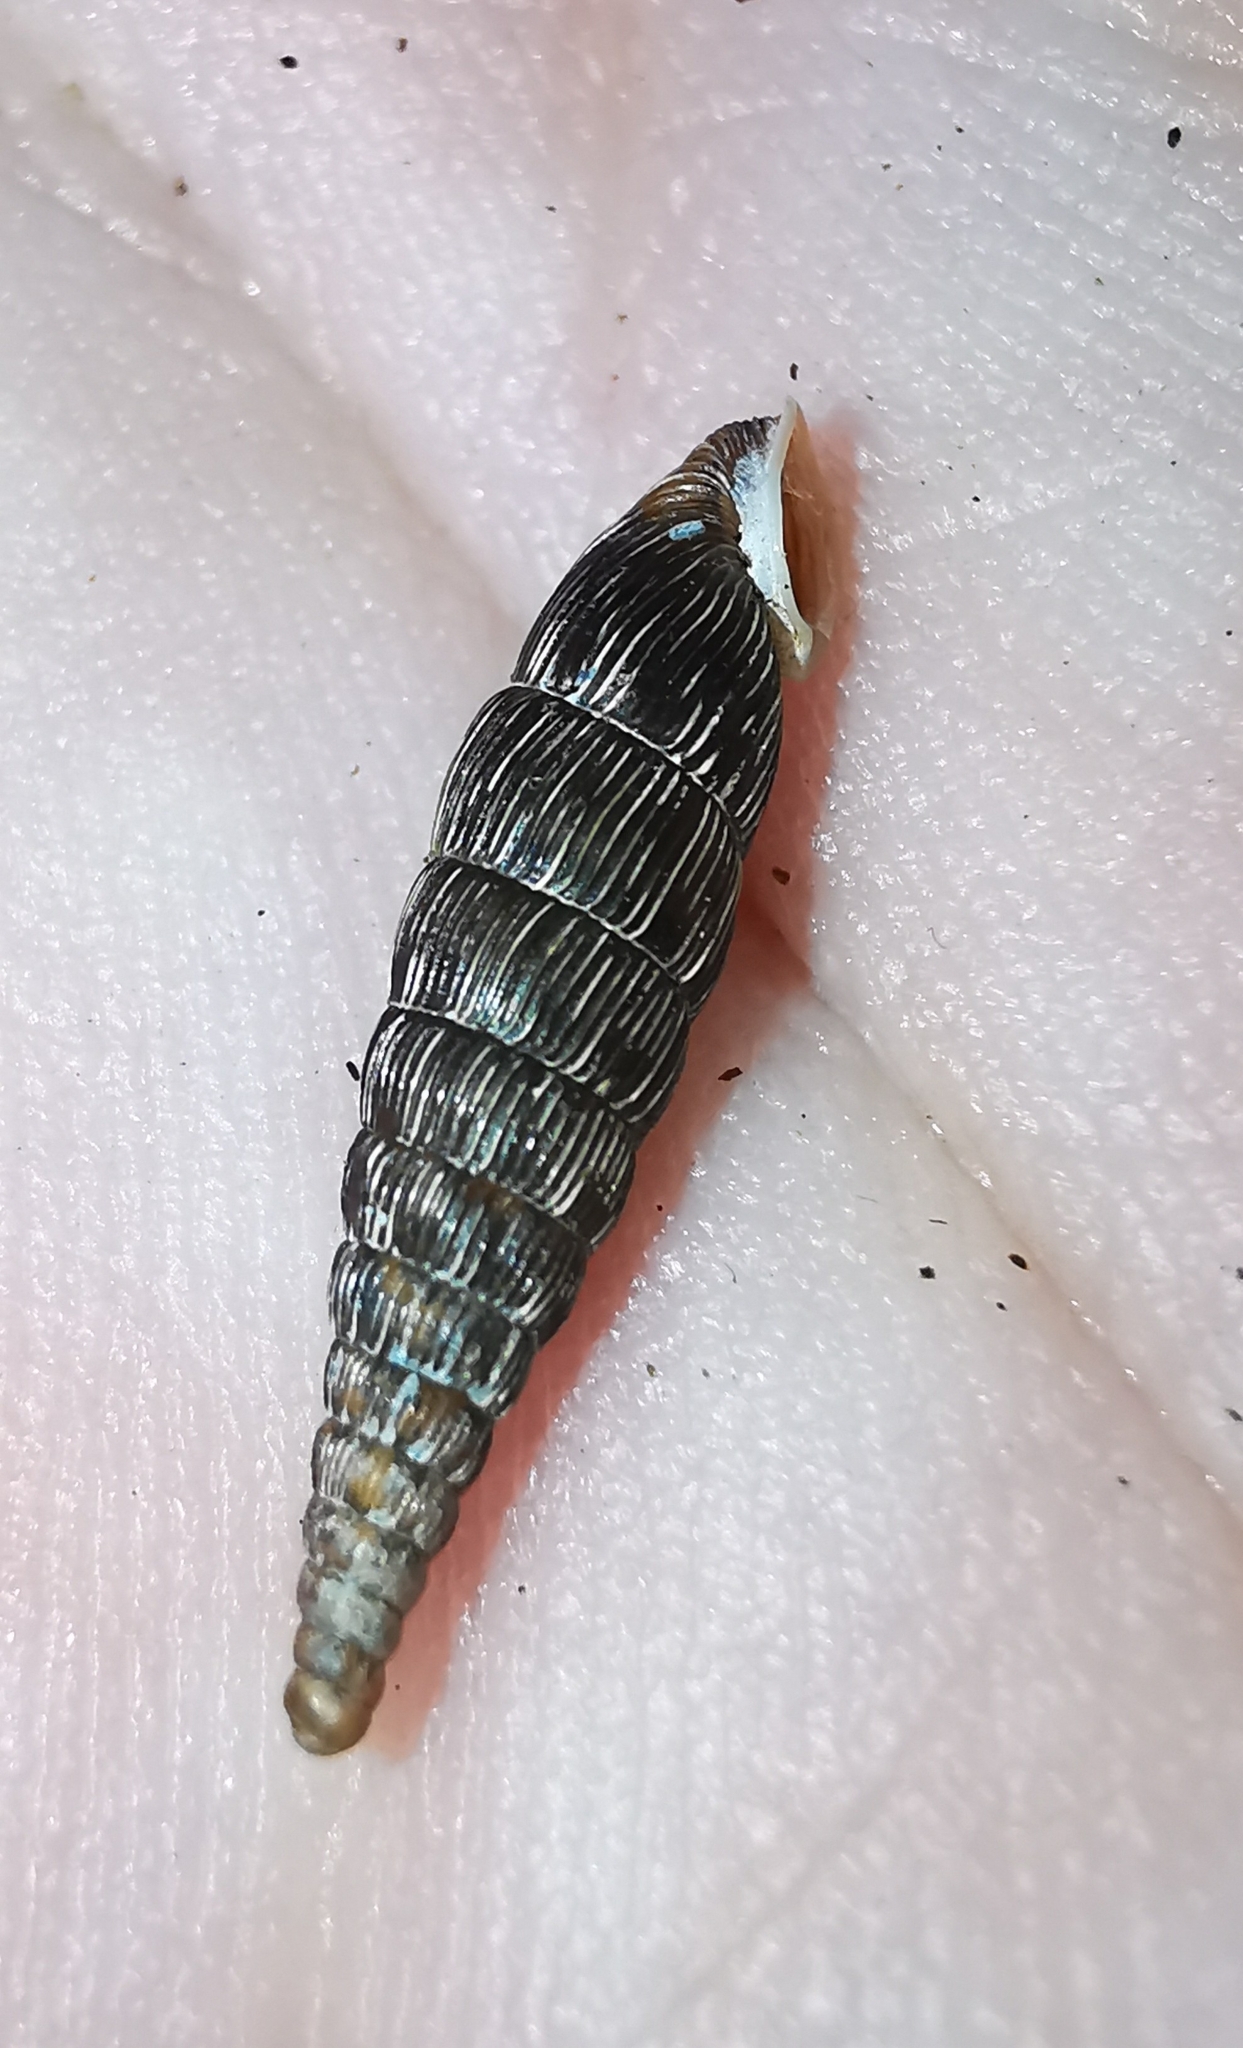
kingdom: Animalia
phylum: Mollusca
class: Gastropoda
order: Stylommatophora
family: Clausiliidae
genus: Strigillaria
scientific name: Strigillaria cana
